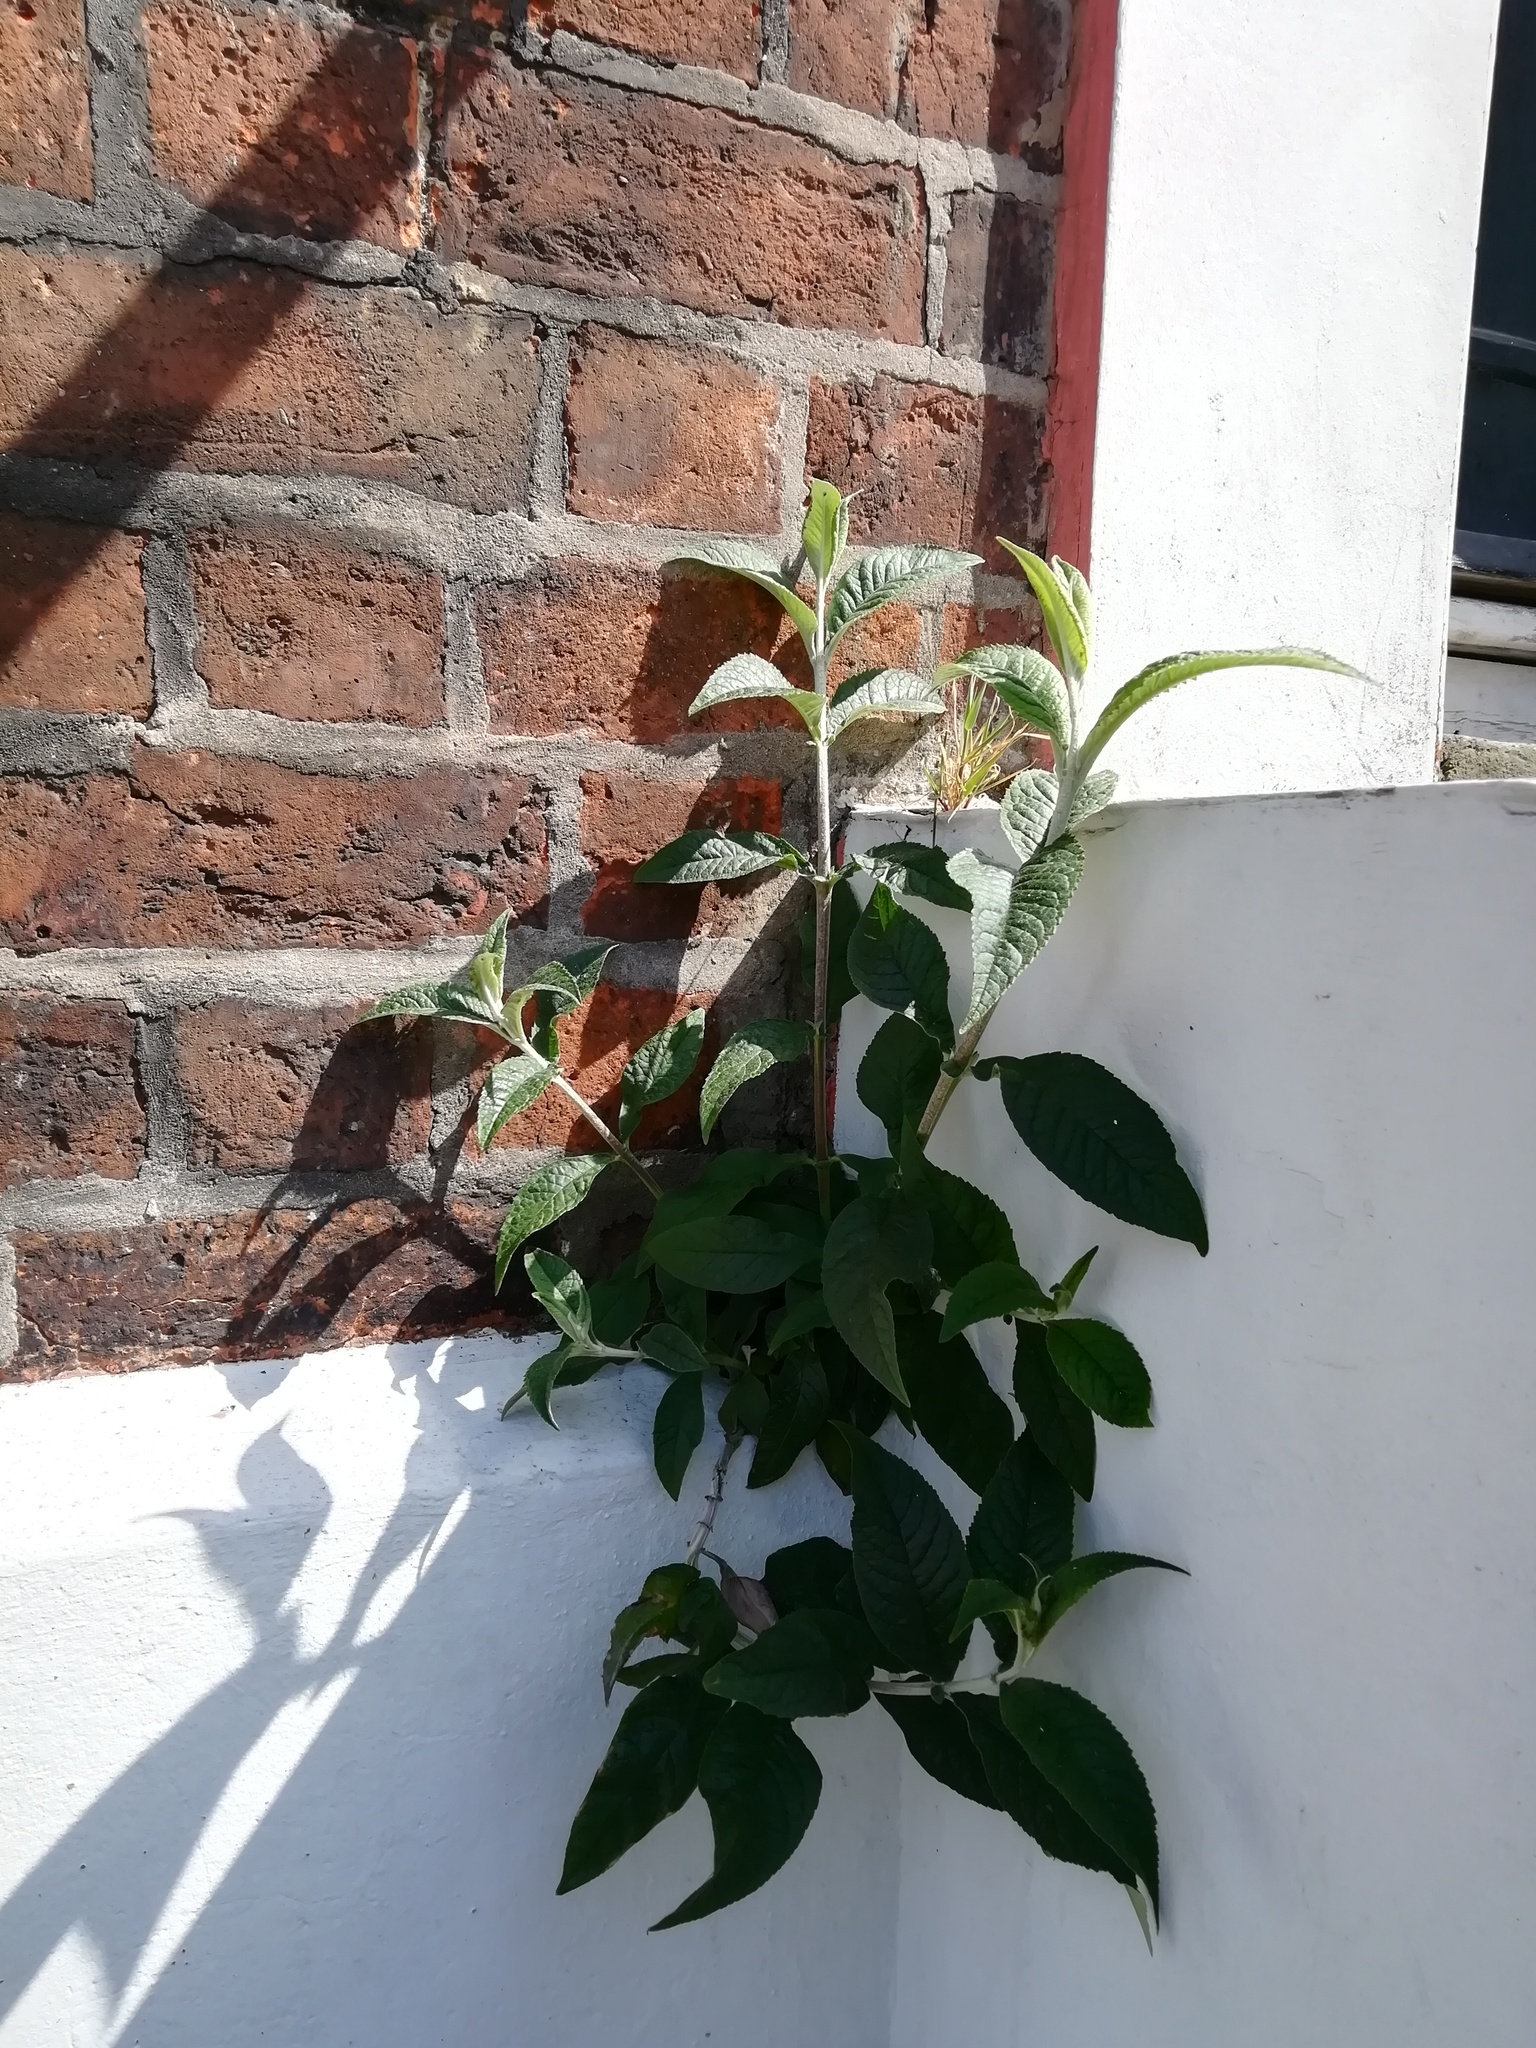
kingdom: Plantae
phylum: Tracheophyta
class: Magnoliopsida
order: Lamiales
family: Scrophulariaceae
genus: Buddleja
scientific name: Buddleja davidii
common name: Butterfly-bush
